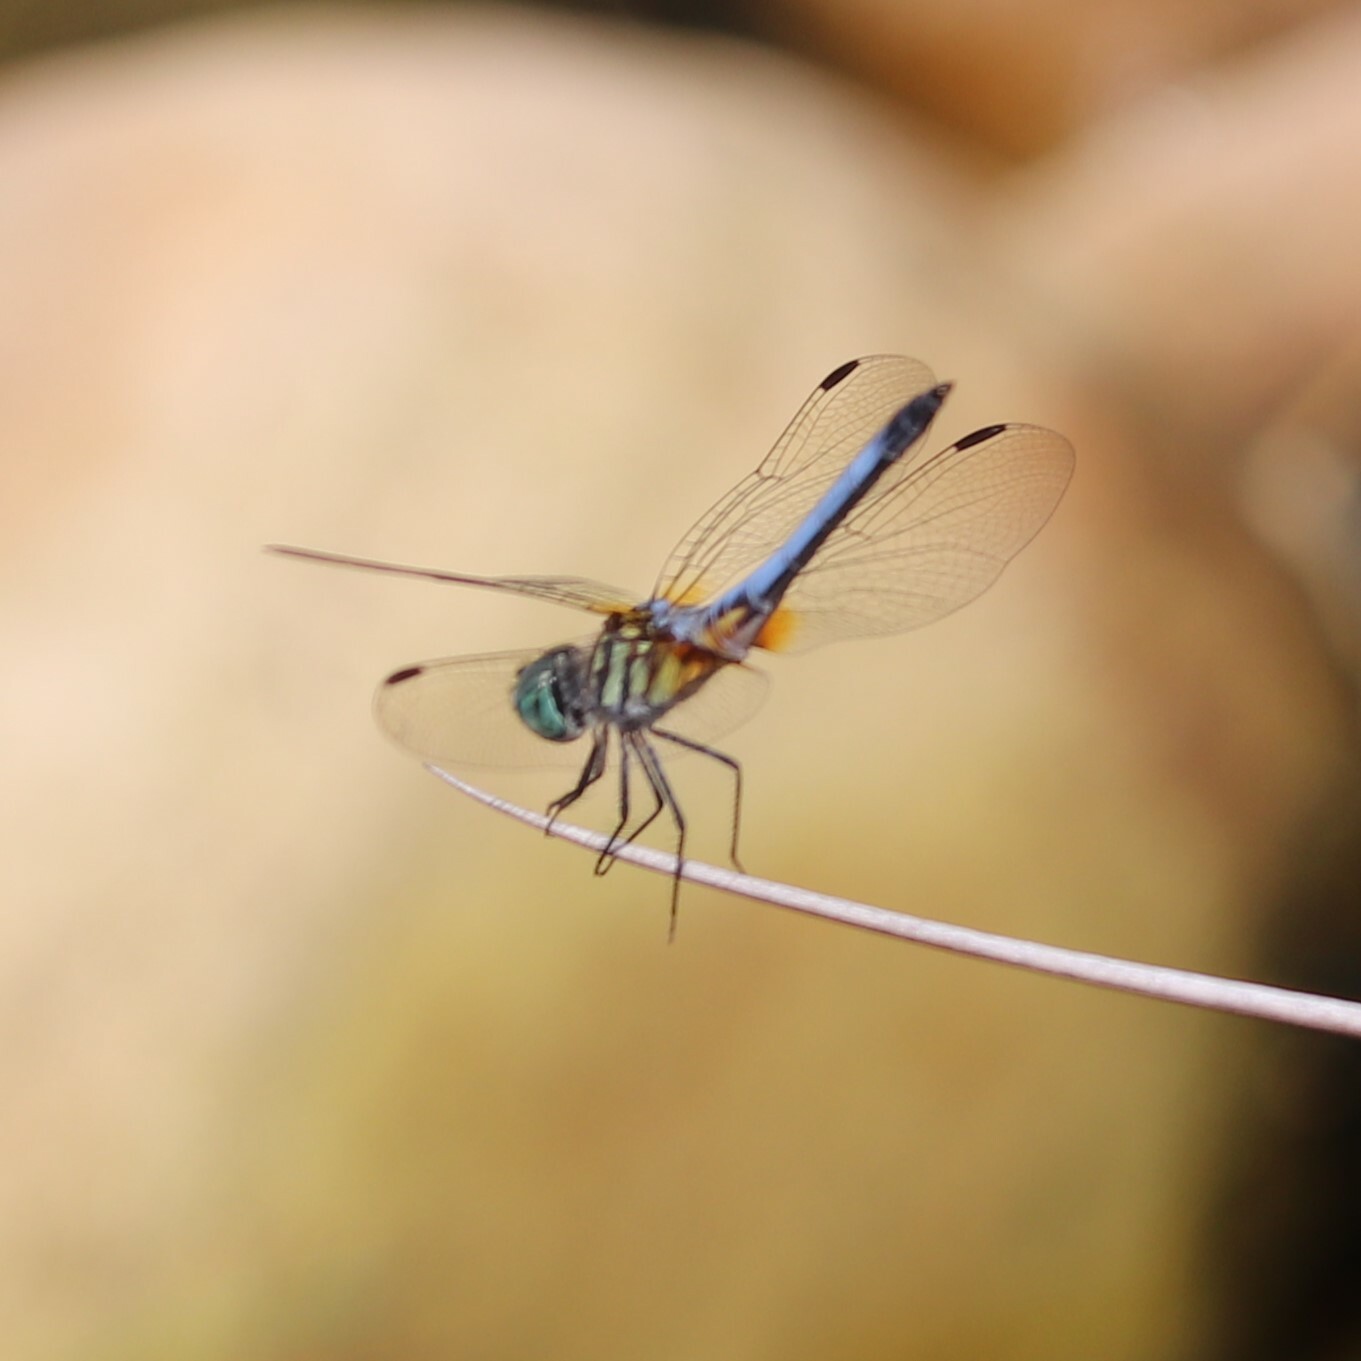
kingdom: Animalia
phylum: Arthropoda
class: Insecta
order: Odonata
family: Libellulidae
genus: Pachydiplax
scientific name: Pachydiplax longipennis
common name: Blue dasher
